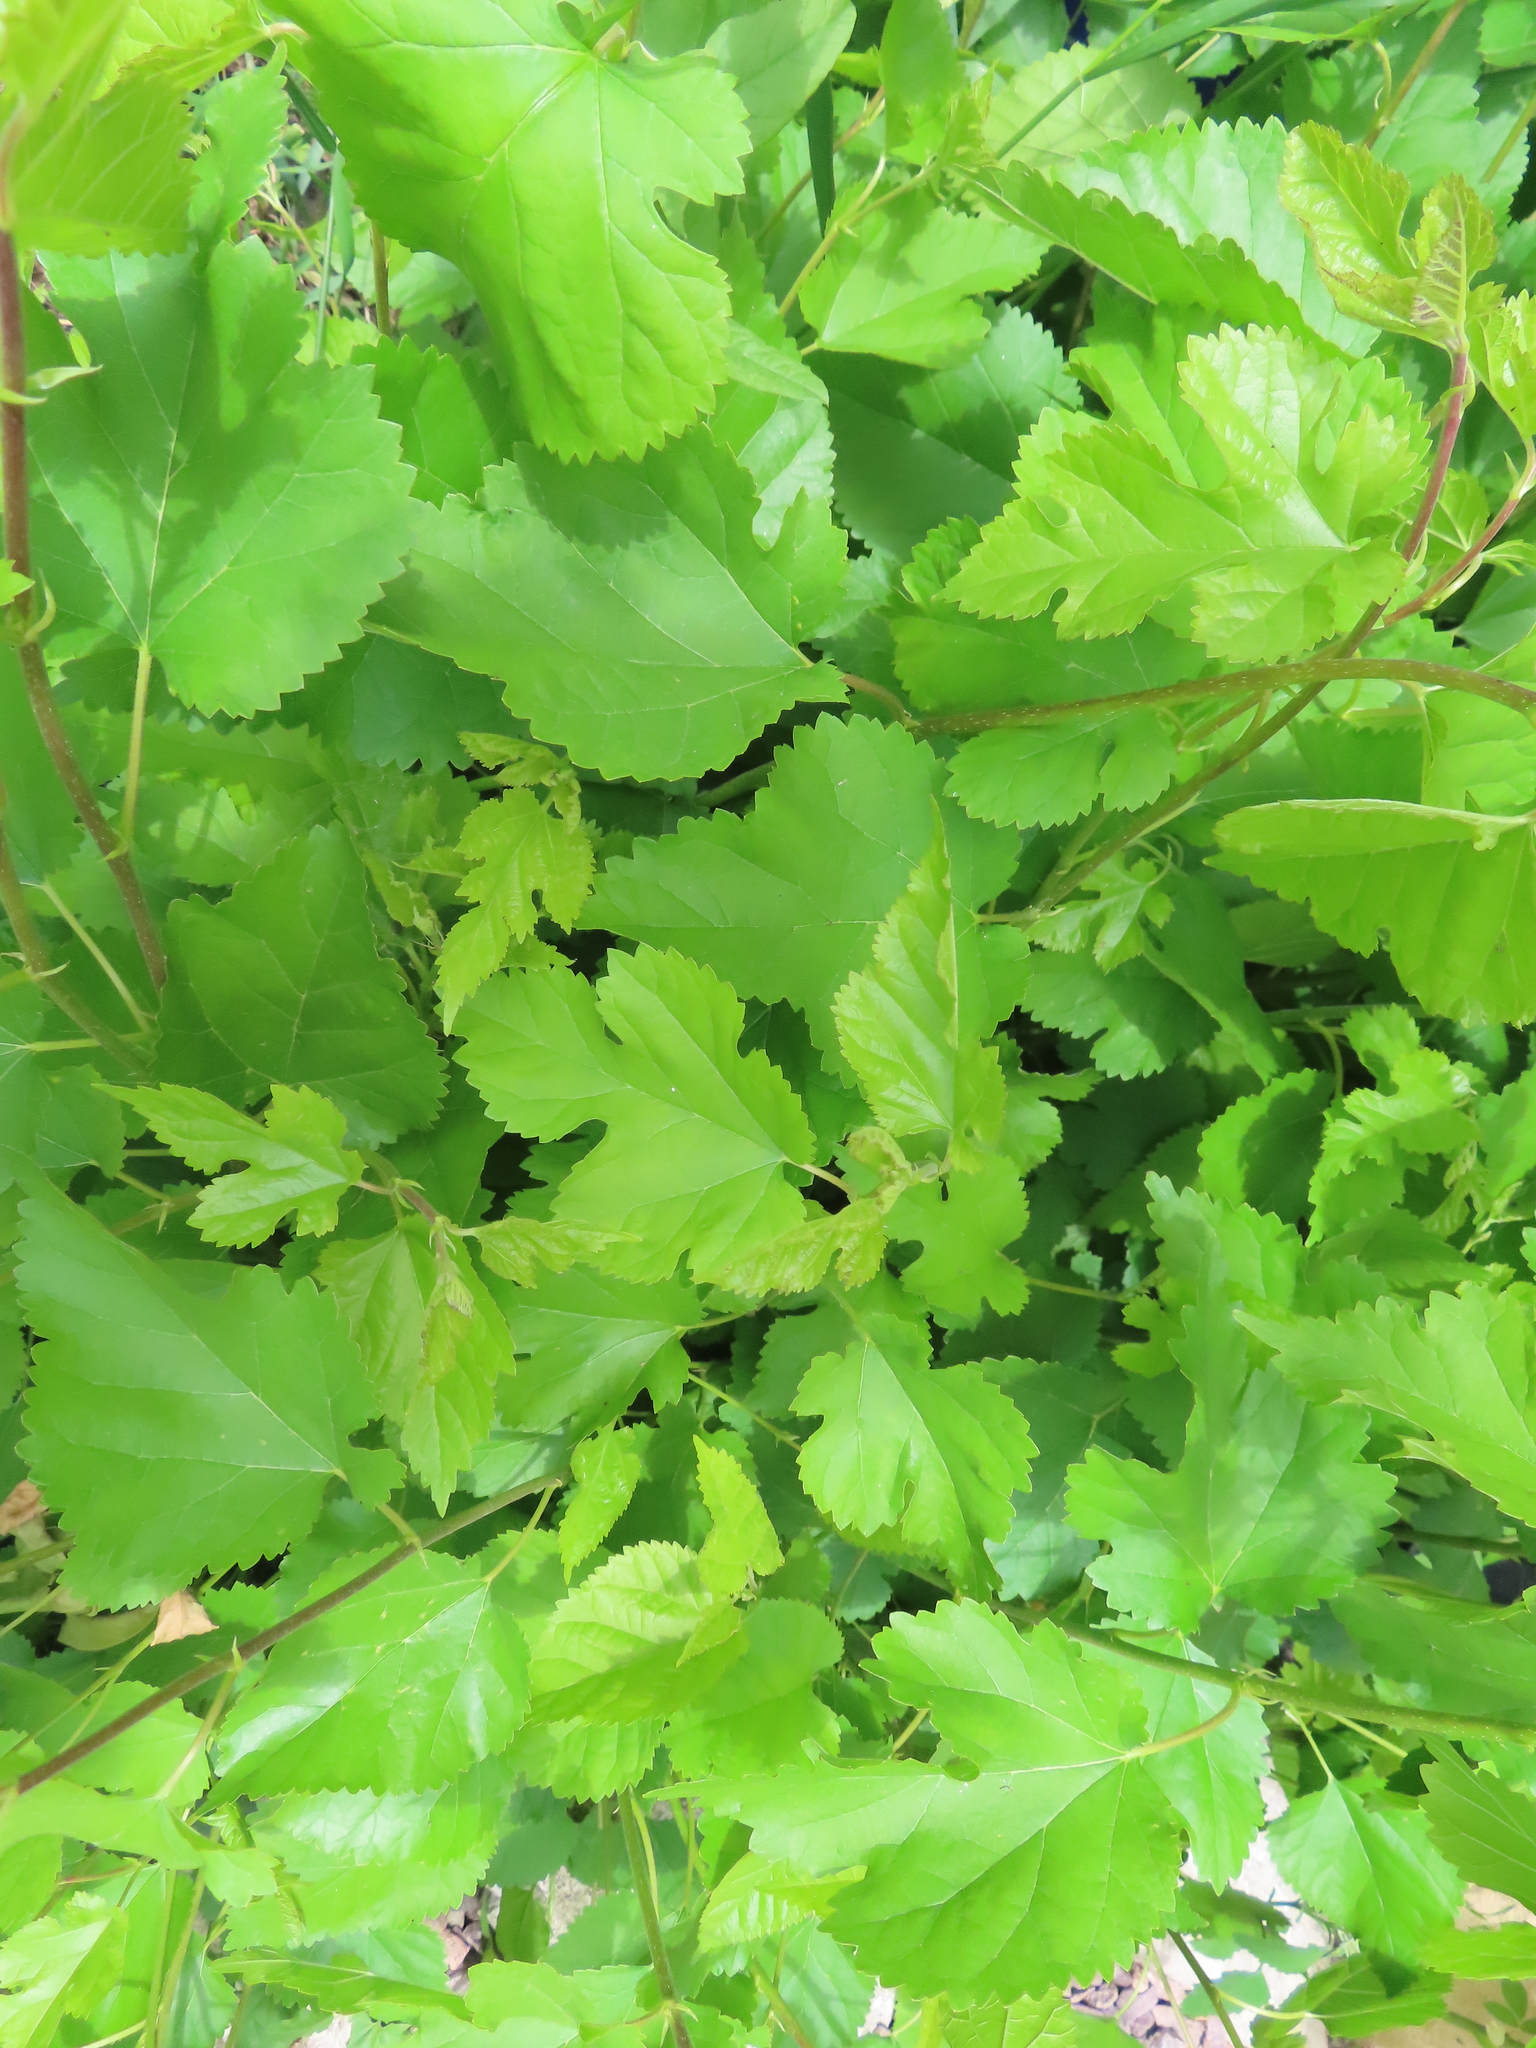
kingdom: Plantae
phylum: Tracheophyta
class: Magnoliopsida
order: Rosales
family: Moraceae
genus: Morus
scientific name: Morus alba
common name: White mulberry
